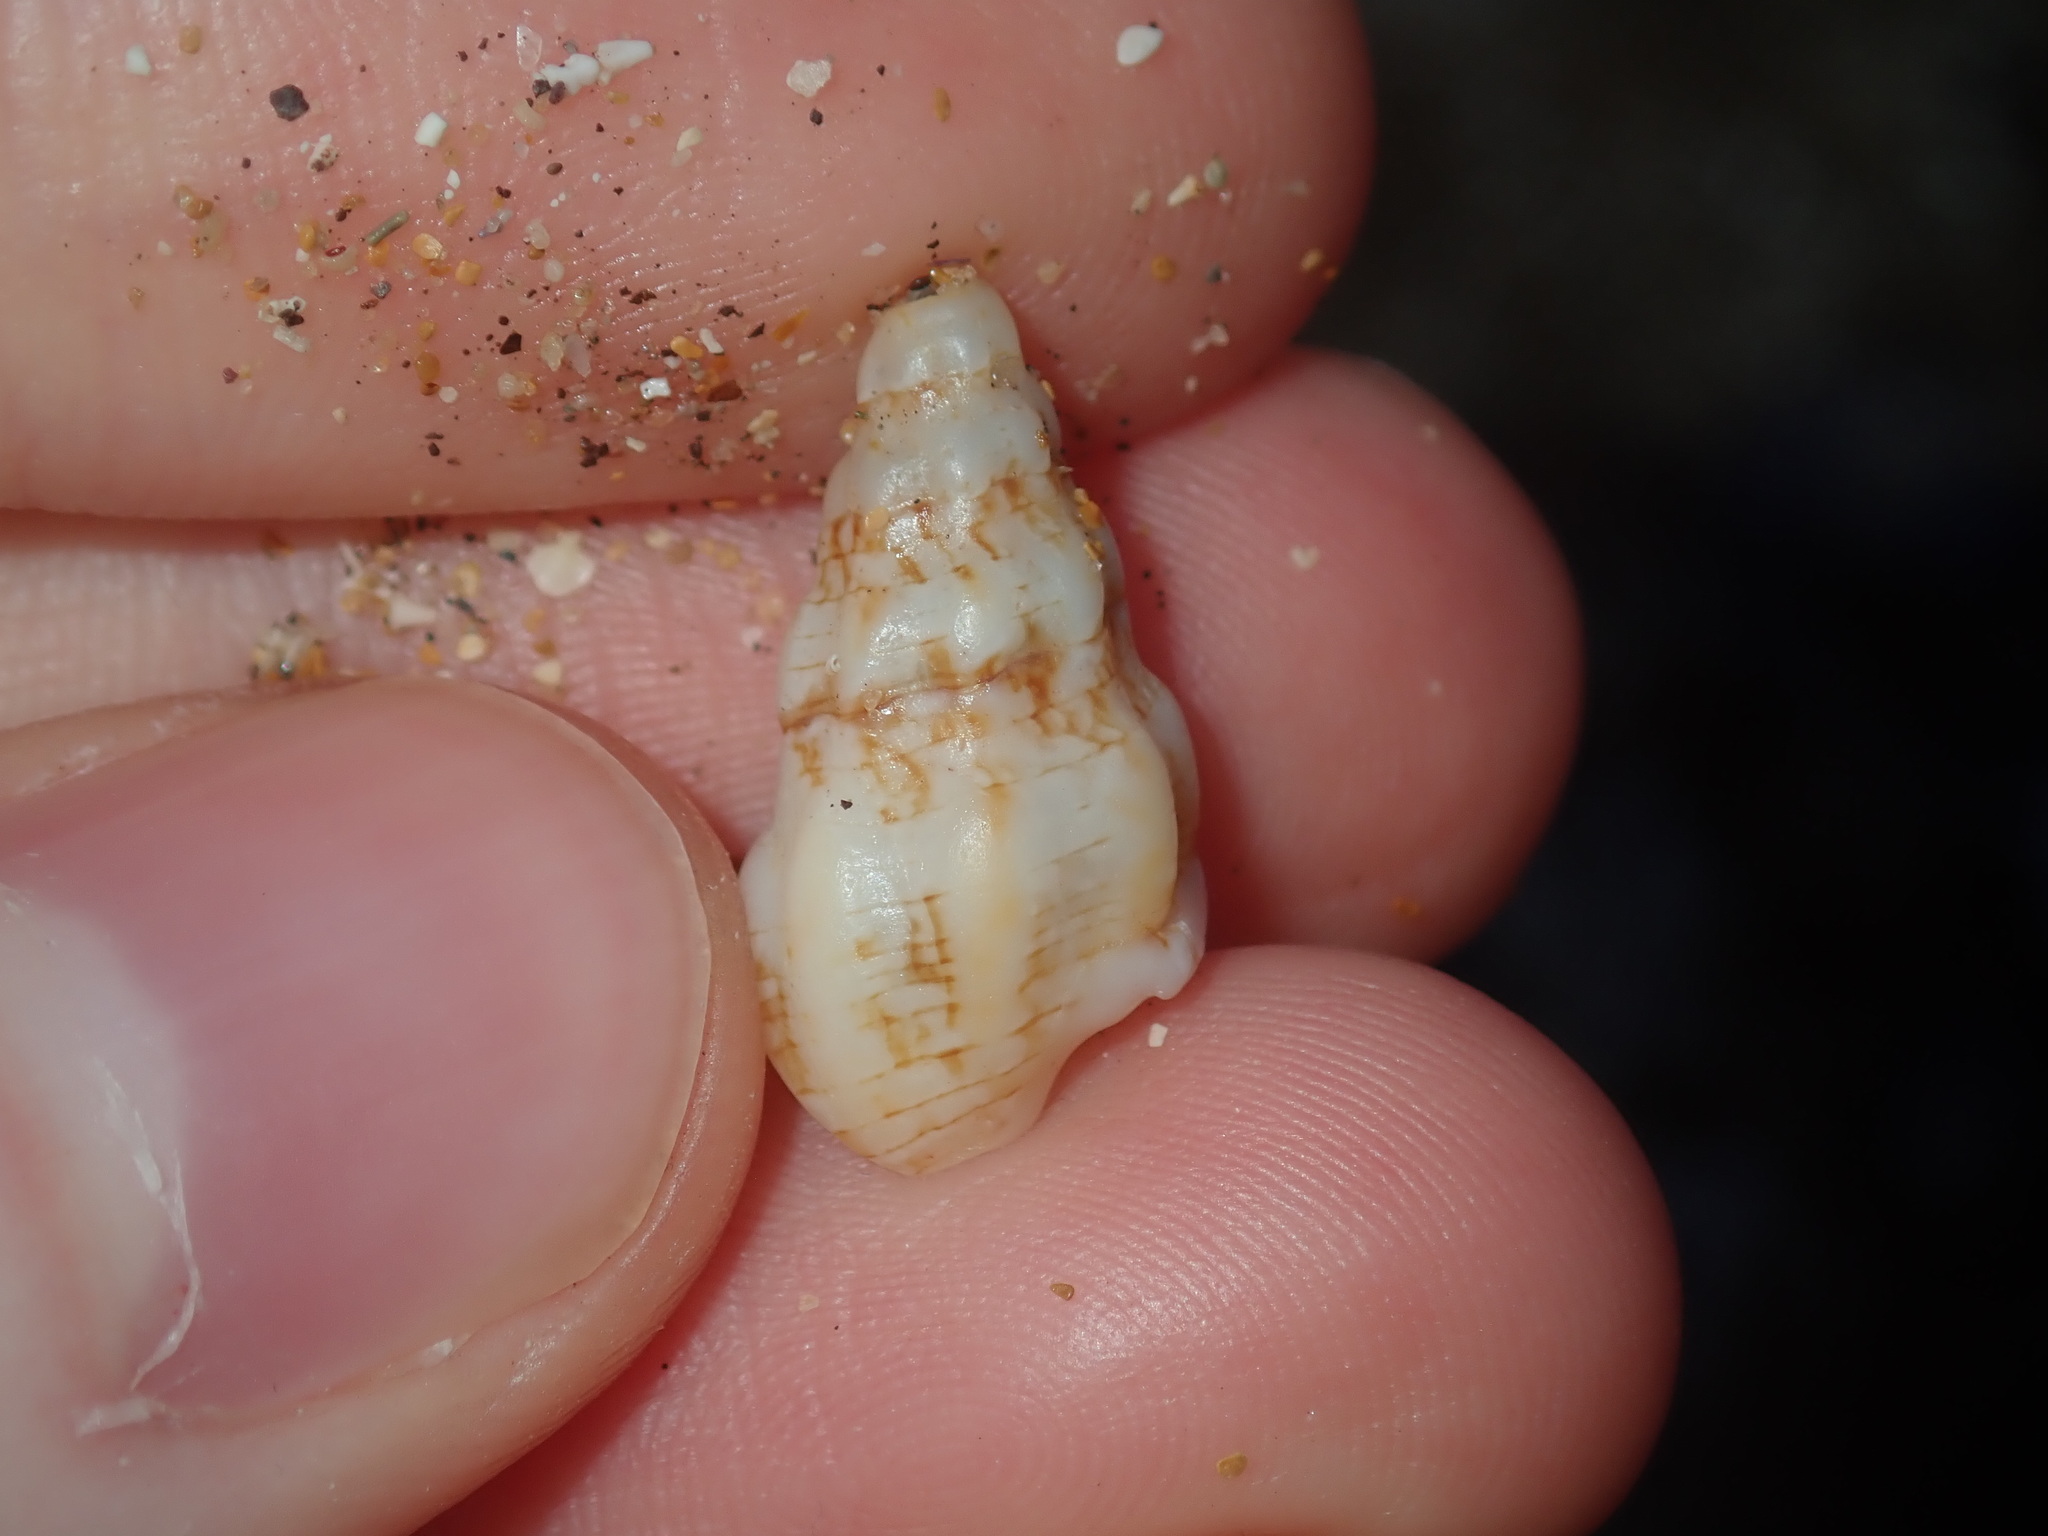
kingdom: Animalia
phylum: Mollusca
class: Gastropoda
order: Neogastropoda
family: Cominellidae
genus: Cominella
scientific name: Cominella eburnea
